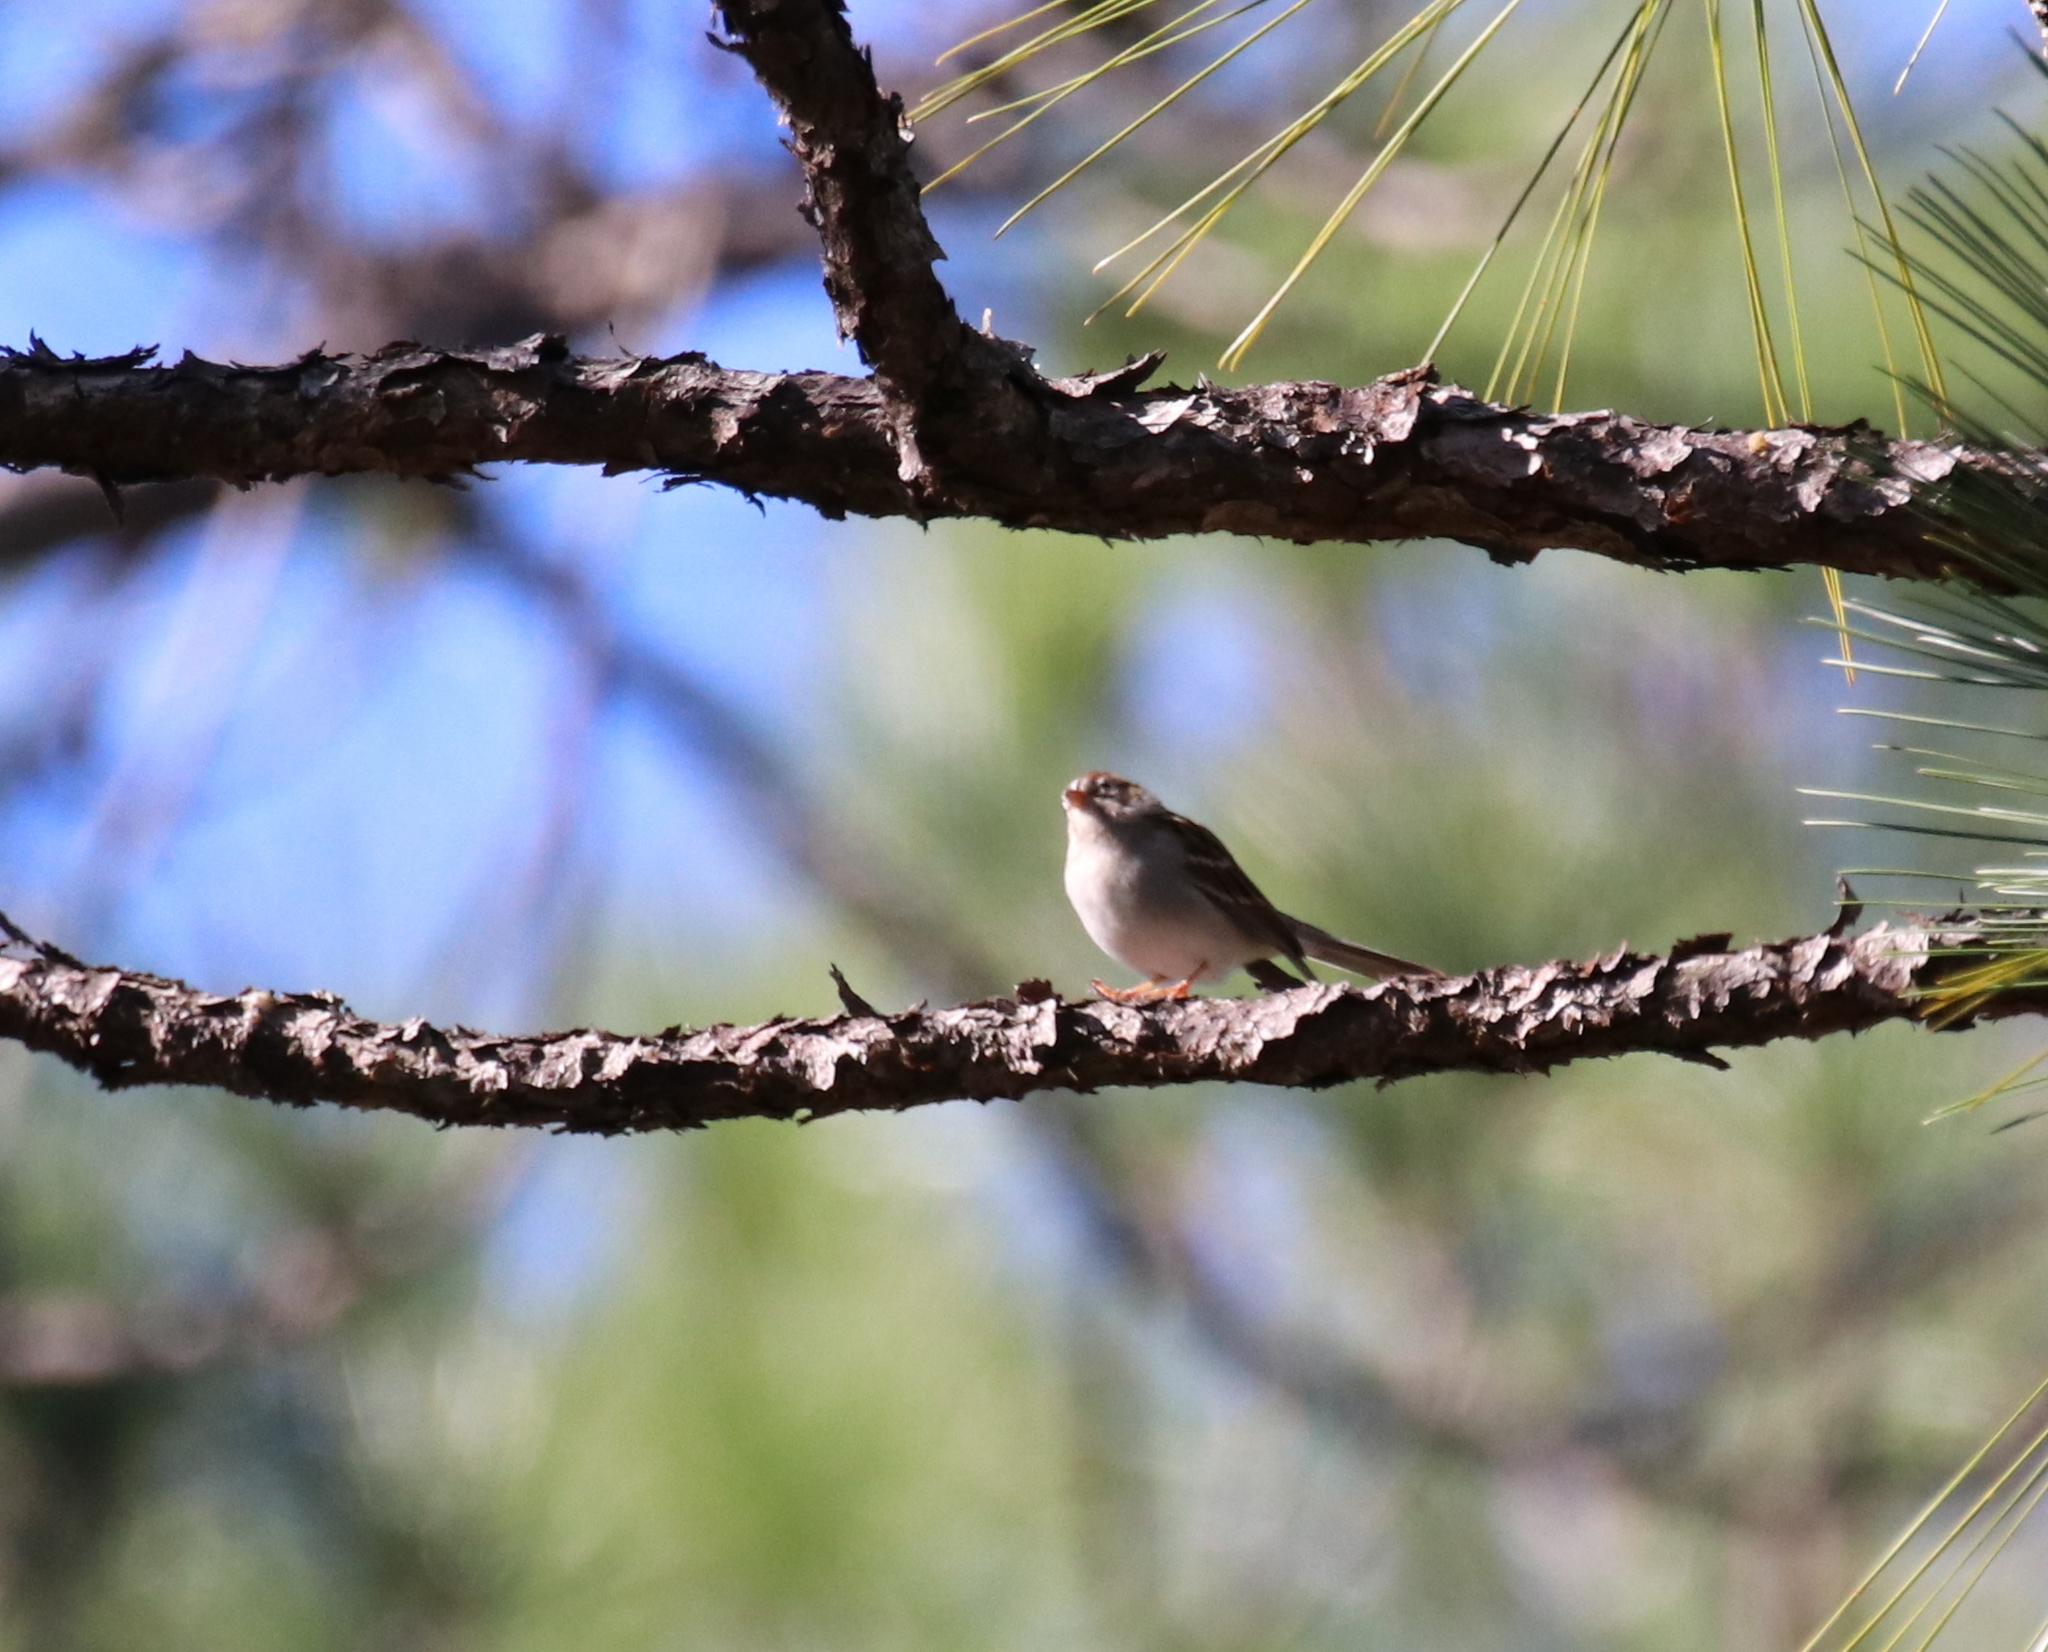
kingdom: Animalia
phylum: Chordata
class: Aves
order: Passeriformes
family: Passerellidae
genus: Spizella
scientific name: Spizella passerina
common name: Chipping sparrow
